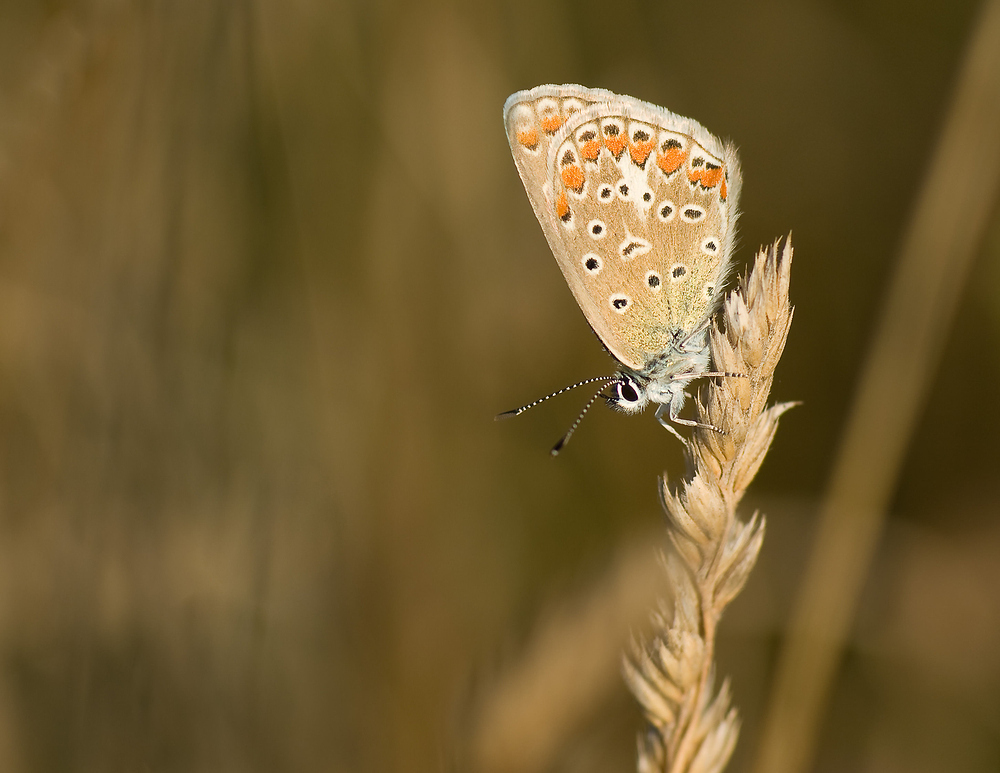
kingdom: Animalia
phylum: Arthropoda
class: Insecta
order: Lepidoptera
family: Lycaenidae
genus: Polyommatus
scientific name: Polyommatus icarus
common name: Common blue
